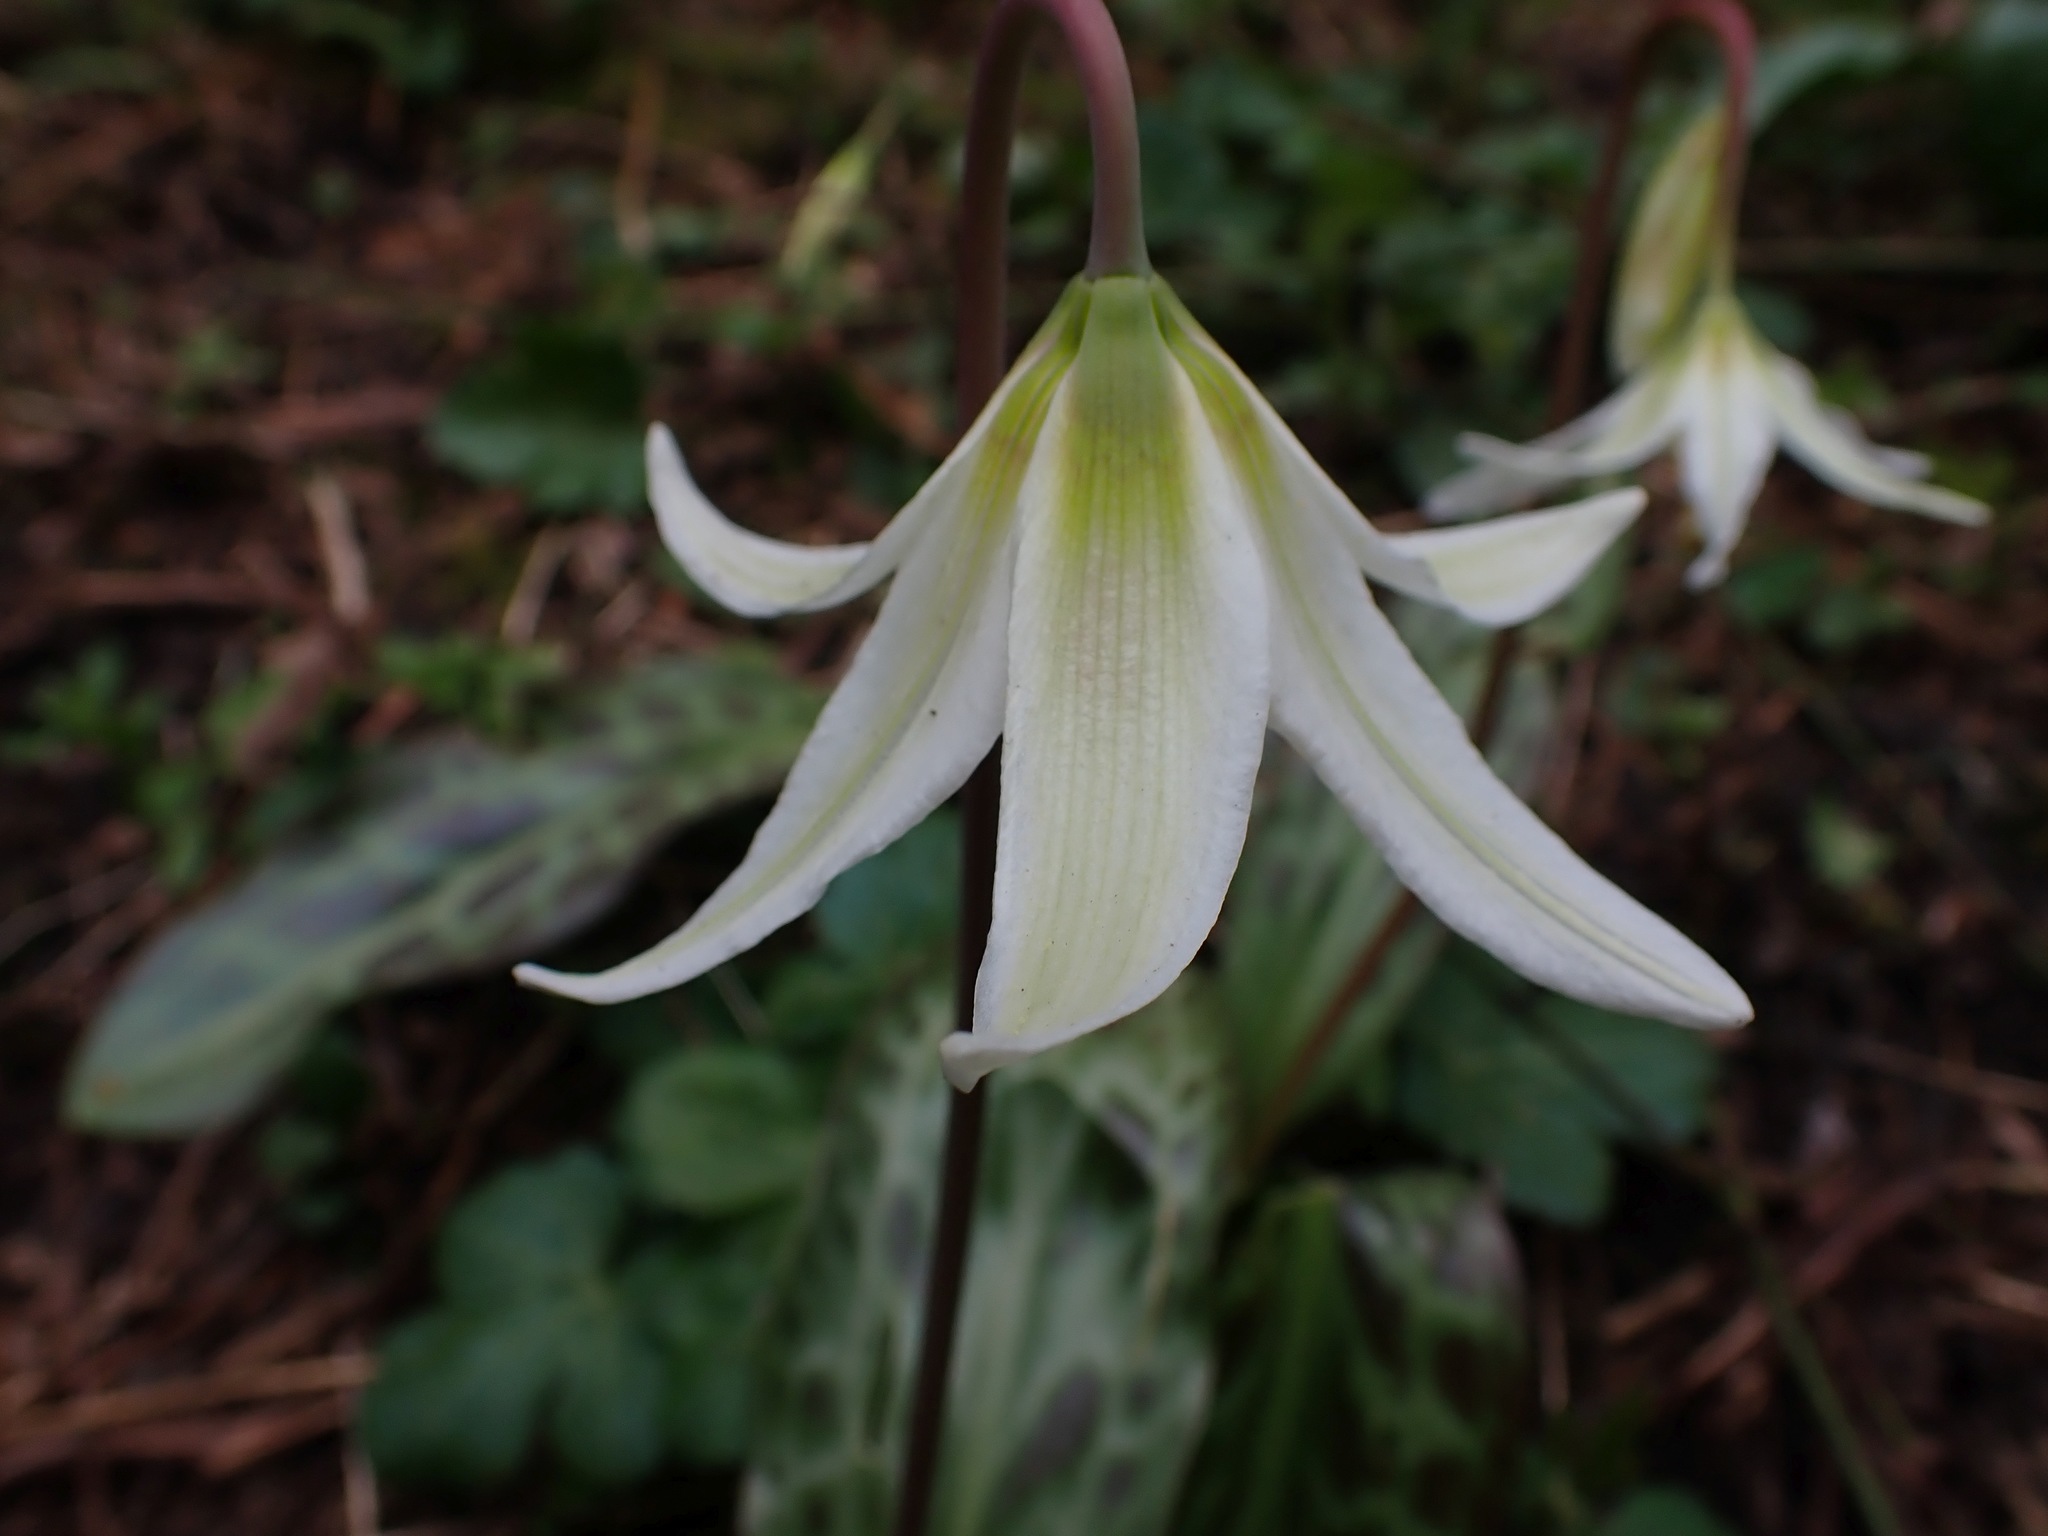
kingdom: Plantae
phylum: Tracheophyta
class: Liliopsida
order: Liliales
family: Liliaceae
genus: Erythronium
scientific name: Erythronium oregonum
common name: Giant adder's-tongue
